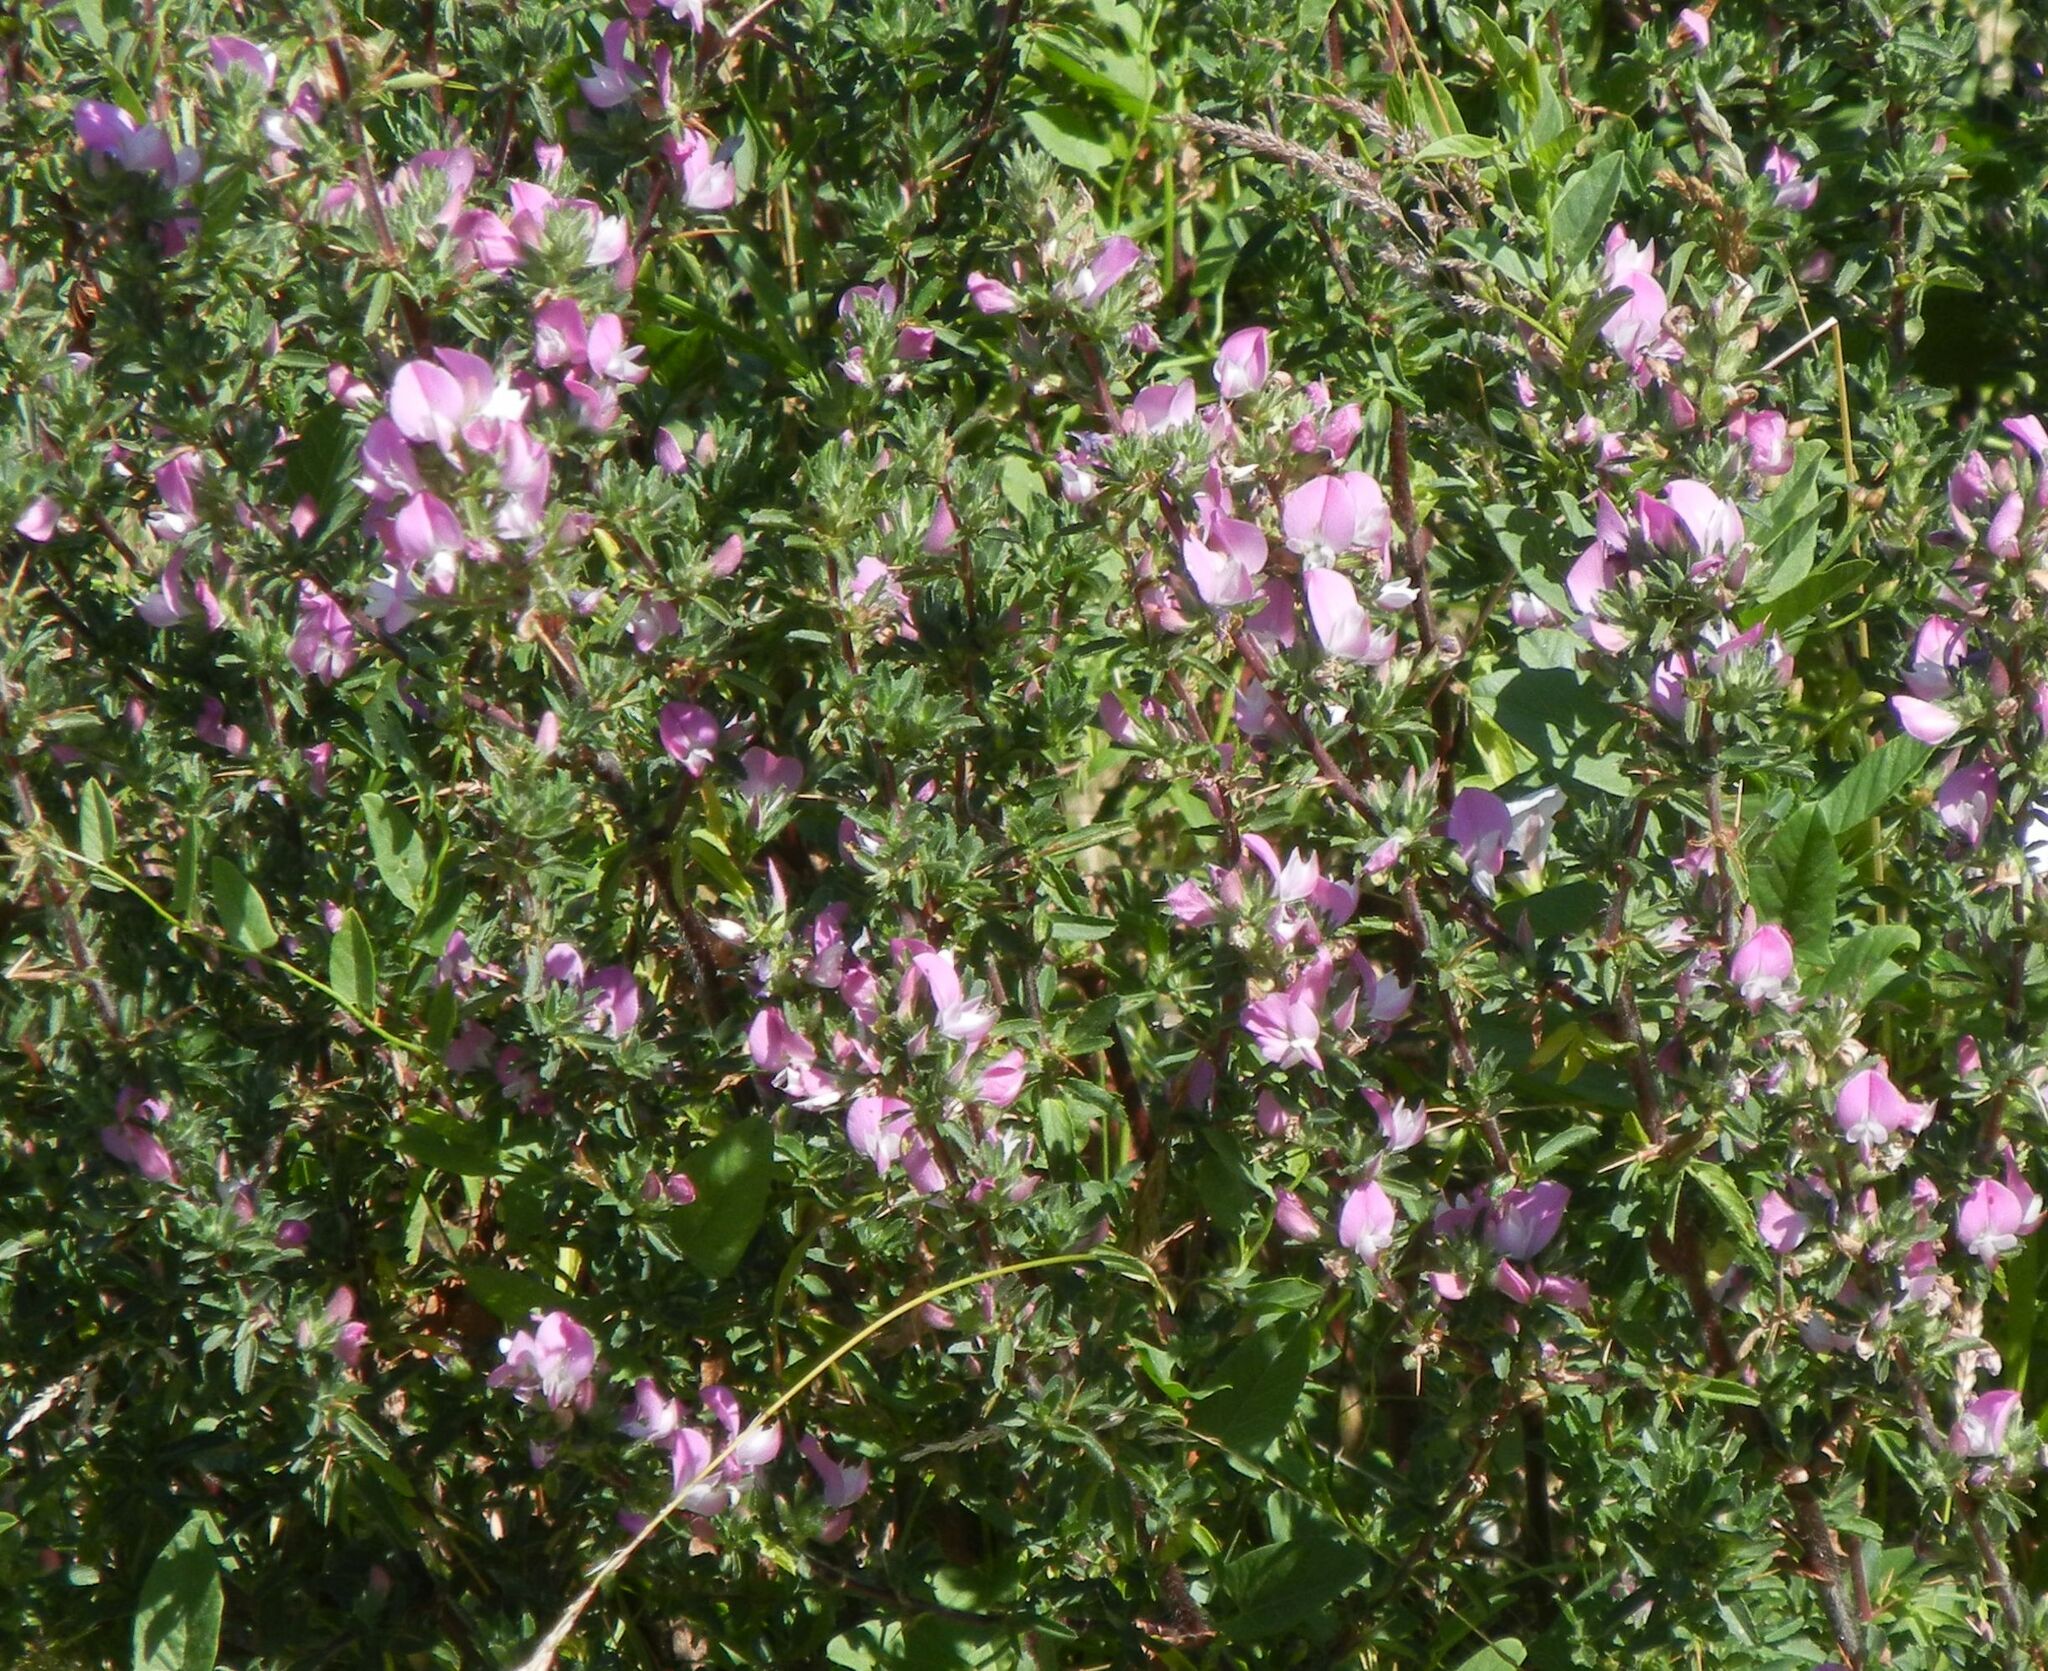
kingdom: Plantae
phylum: Tracheophyta
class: Magnoliopsida
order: Fabales
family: Fabaceae
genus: Ononis
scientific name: Ononis spinosa
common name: Spiny restharrow
